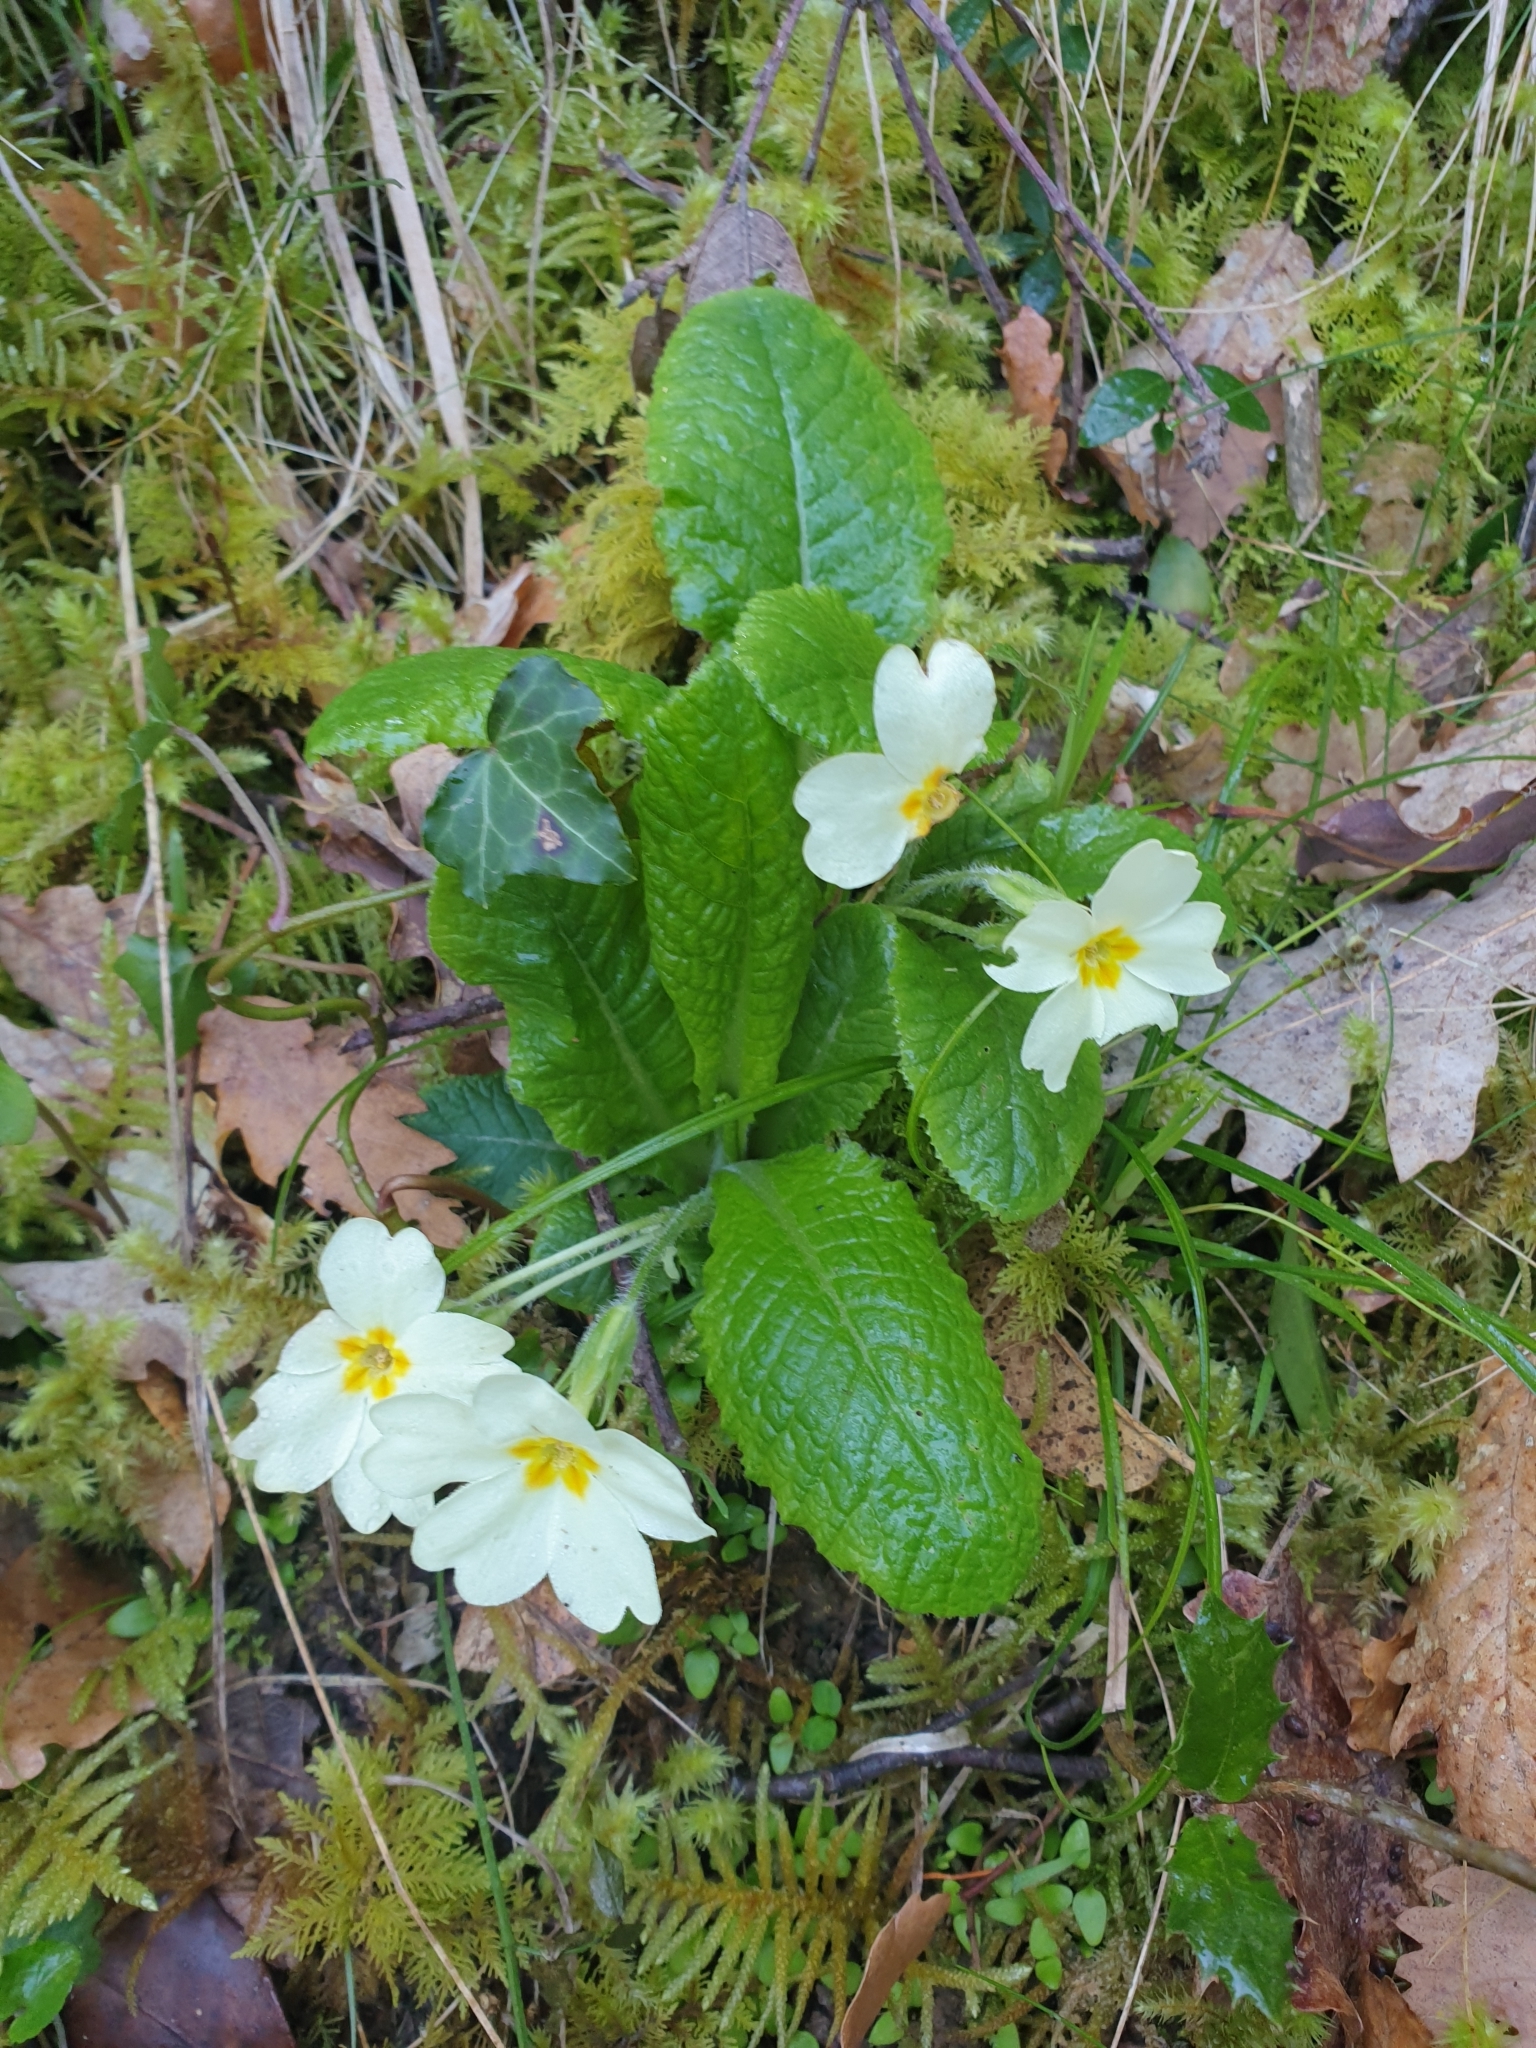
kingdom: Plantae
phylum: Tracheophyta
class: Magnoliopsida
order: Ericales
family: Primulaceae
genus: Primula
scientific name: Primula vulgaris
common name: Primrose
